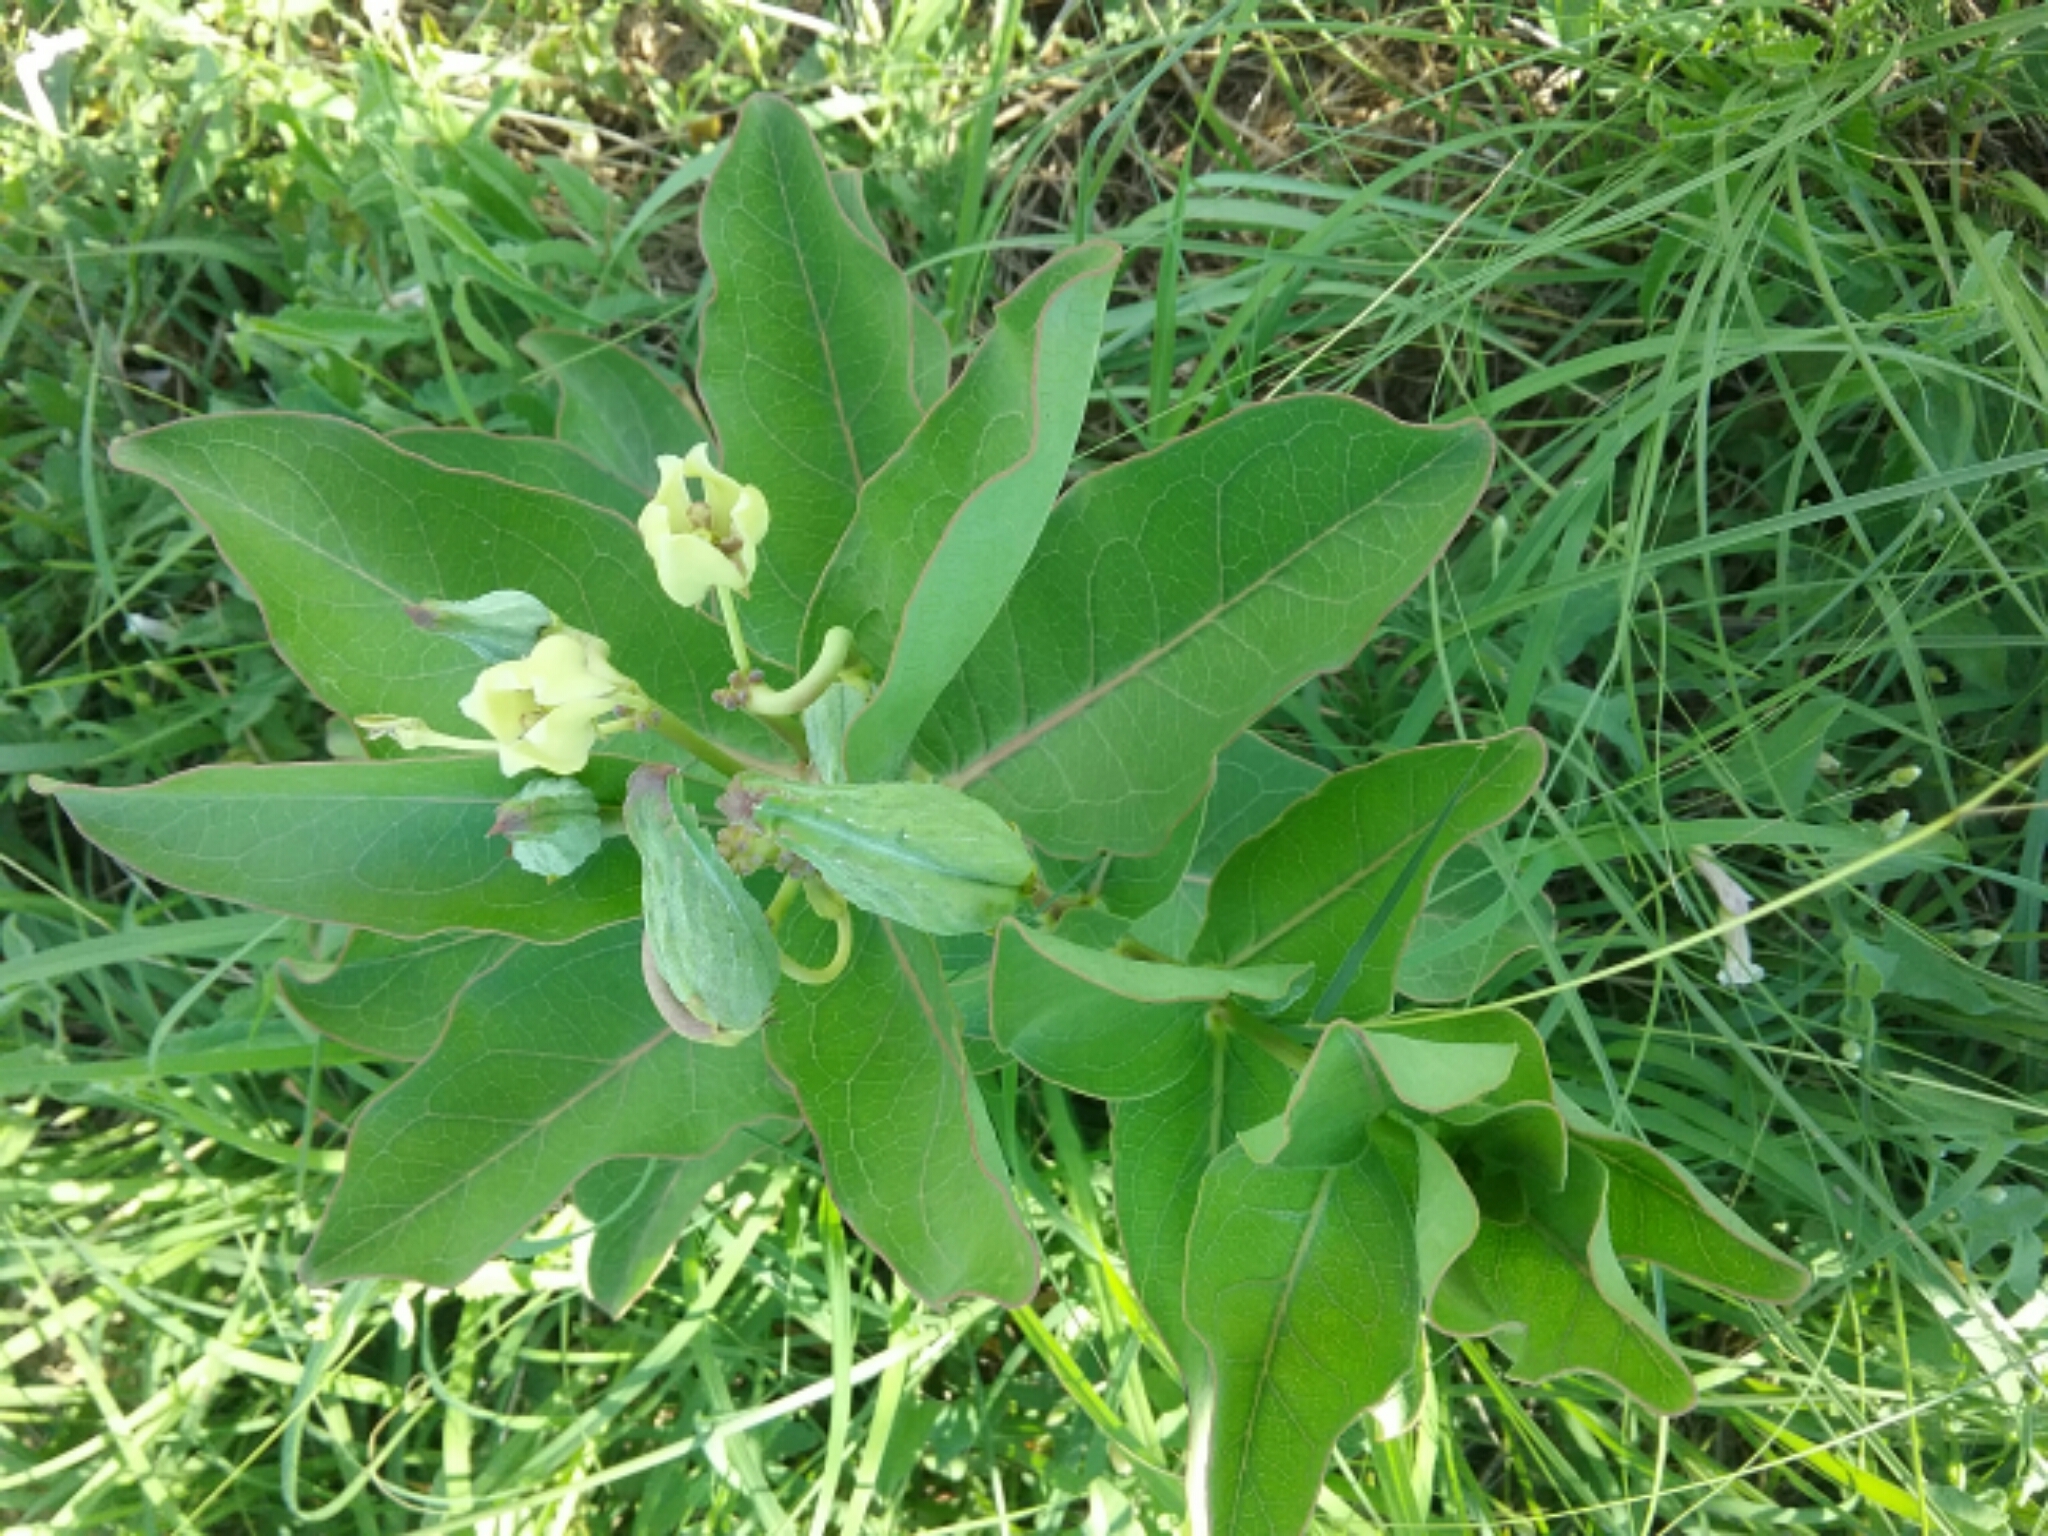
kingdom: Plantae
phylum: Tracheophyta
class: Magnoliopsida
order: Gentianales
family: Apocynaceae
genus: Asclepias
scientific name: Asclepias viridis
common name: Antelope-horns
